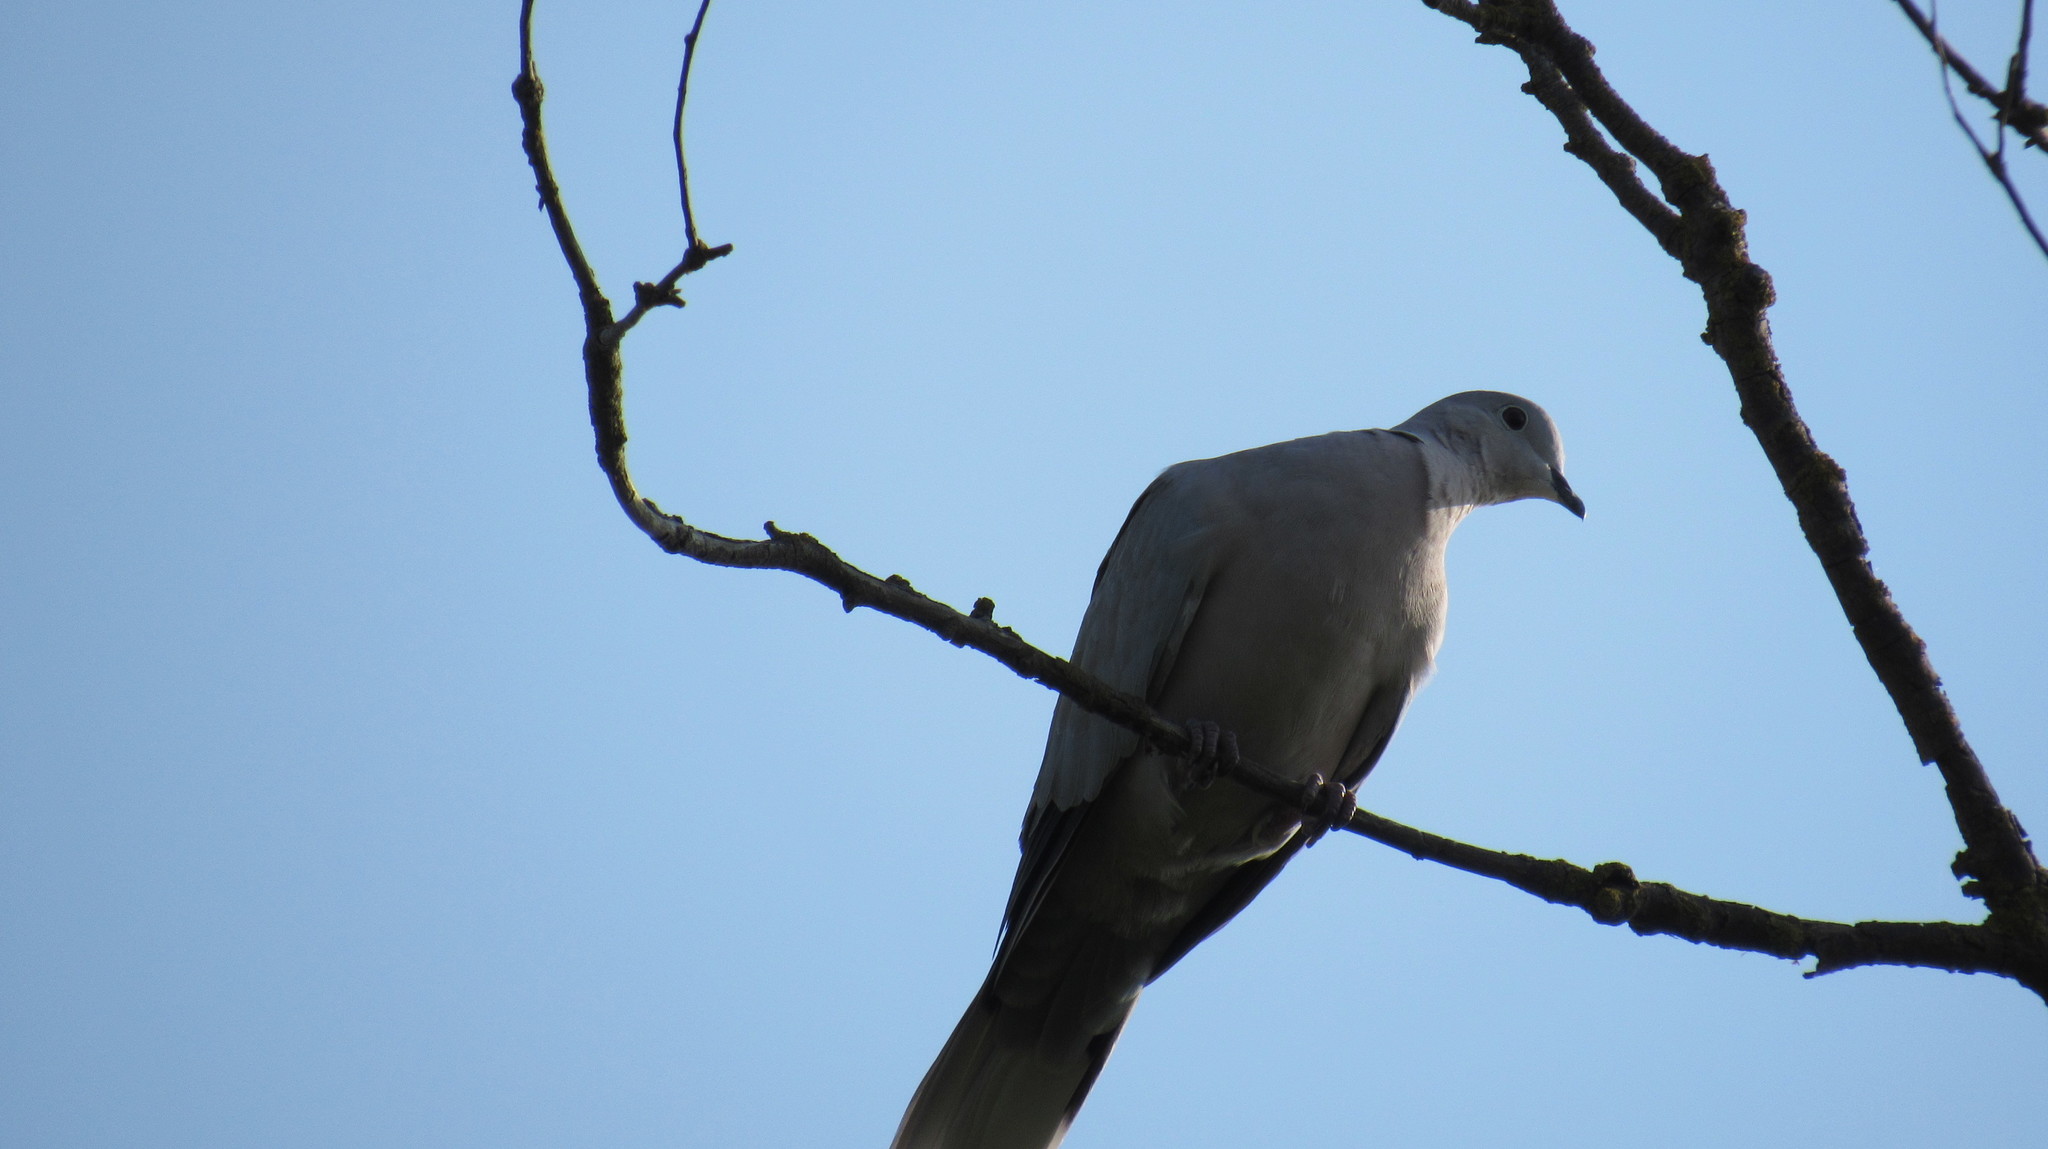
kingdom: Animalia
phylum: Chordata
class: Aves
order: Columbiformes
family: Columbidae
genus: Streptopelia
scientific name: Streptopelia decaocto
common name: Eurasian collared dove
